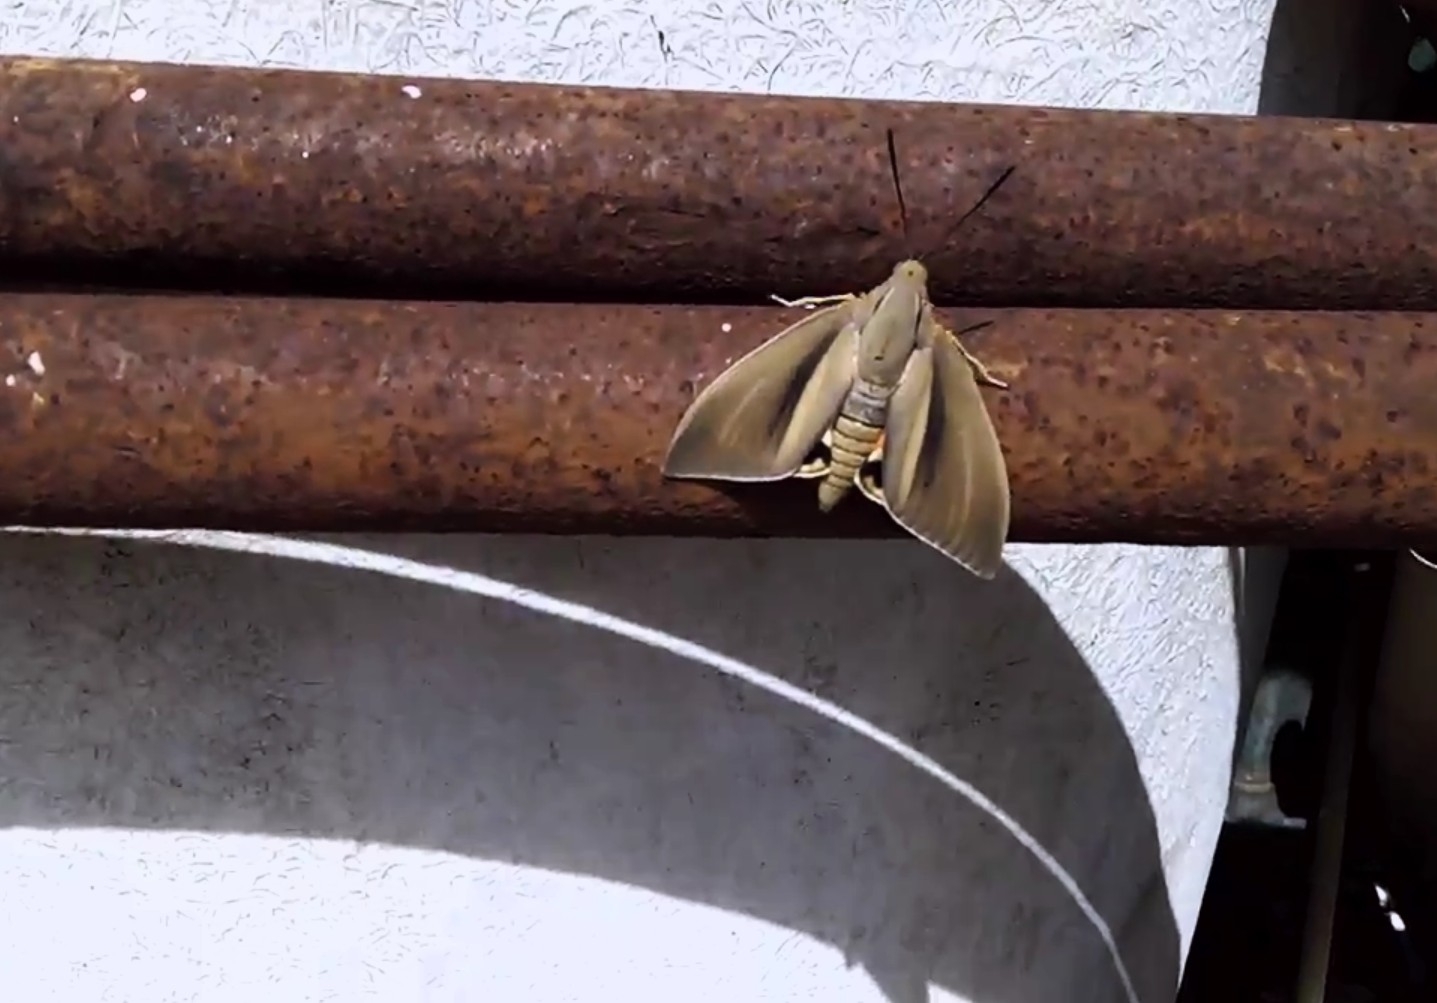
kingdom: Animalia
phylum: Arthropoda
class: Insecta
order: Lepidoptera
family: Castniidae
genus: Paysandisia
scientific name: Paysandisia archon
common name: Palm moth
